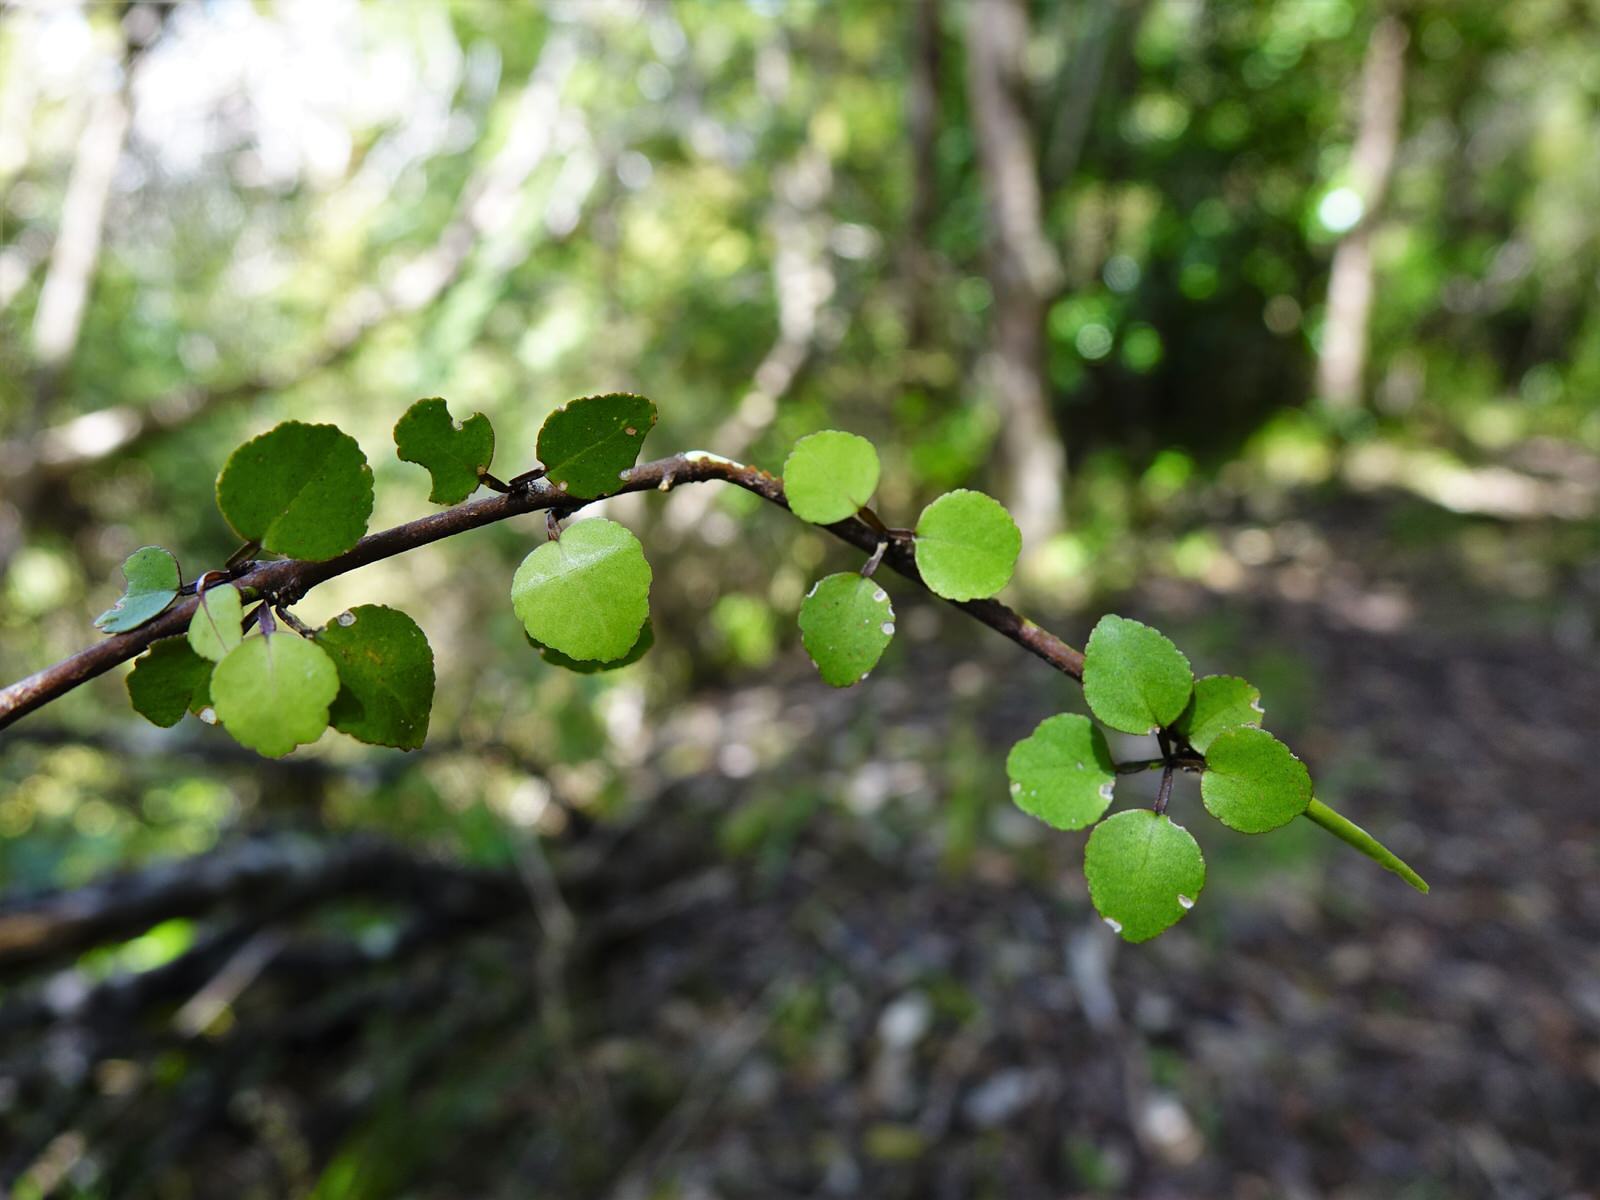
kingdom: Plantae
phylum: Tracheophyta
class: Magnoliopsida
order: Sapindales
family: Rutaceae
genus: Melicope
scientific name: Melicope simplex
